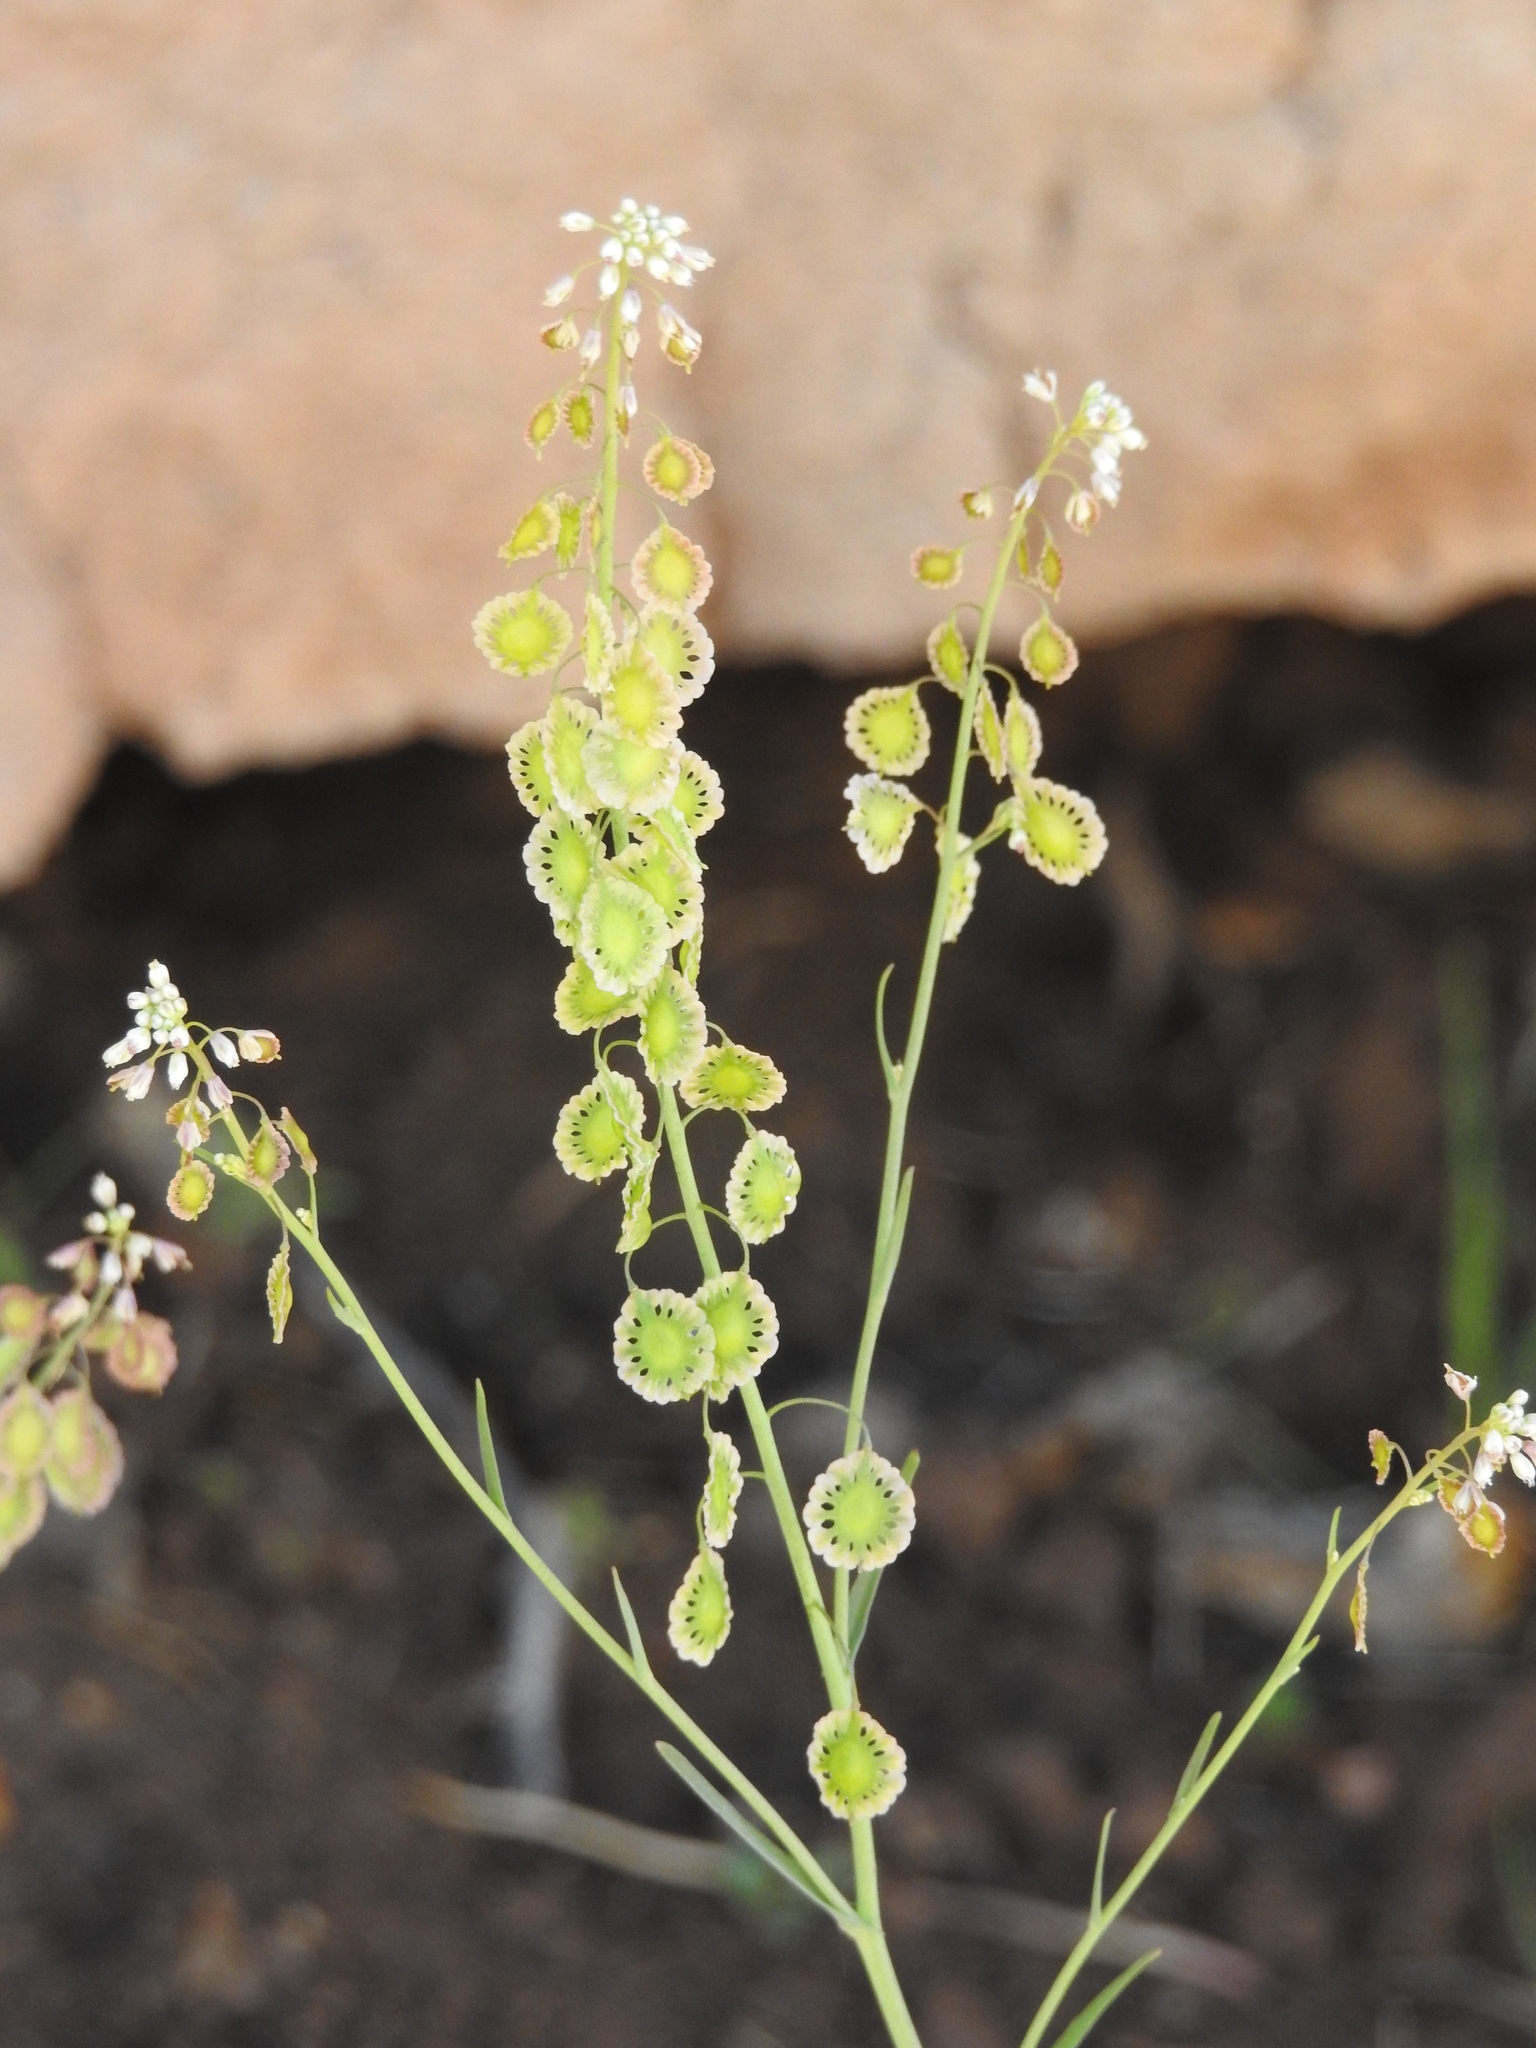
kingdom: Plantae
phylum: Tracheophyta
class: Magnoliopsida
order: Brassicales
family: Brassicaceae
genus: Thysanocarpus
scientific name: Thysanocarpus curvipes
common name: Sand fringepod
